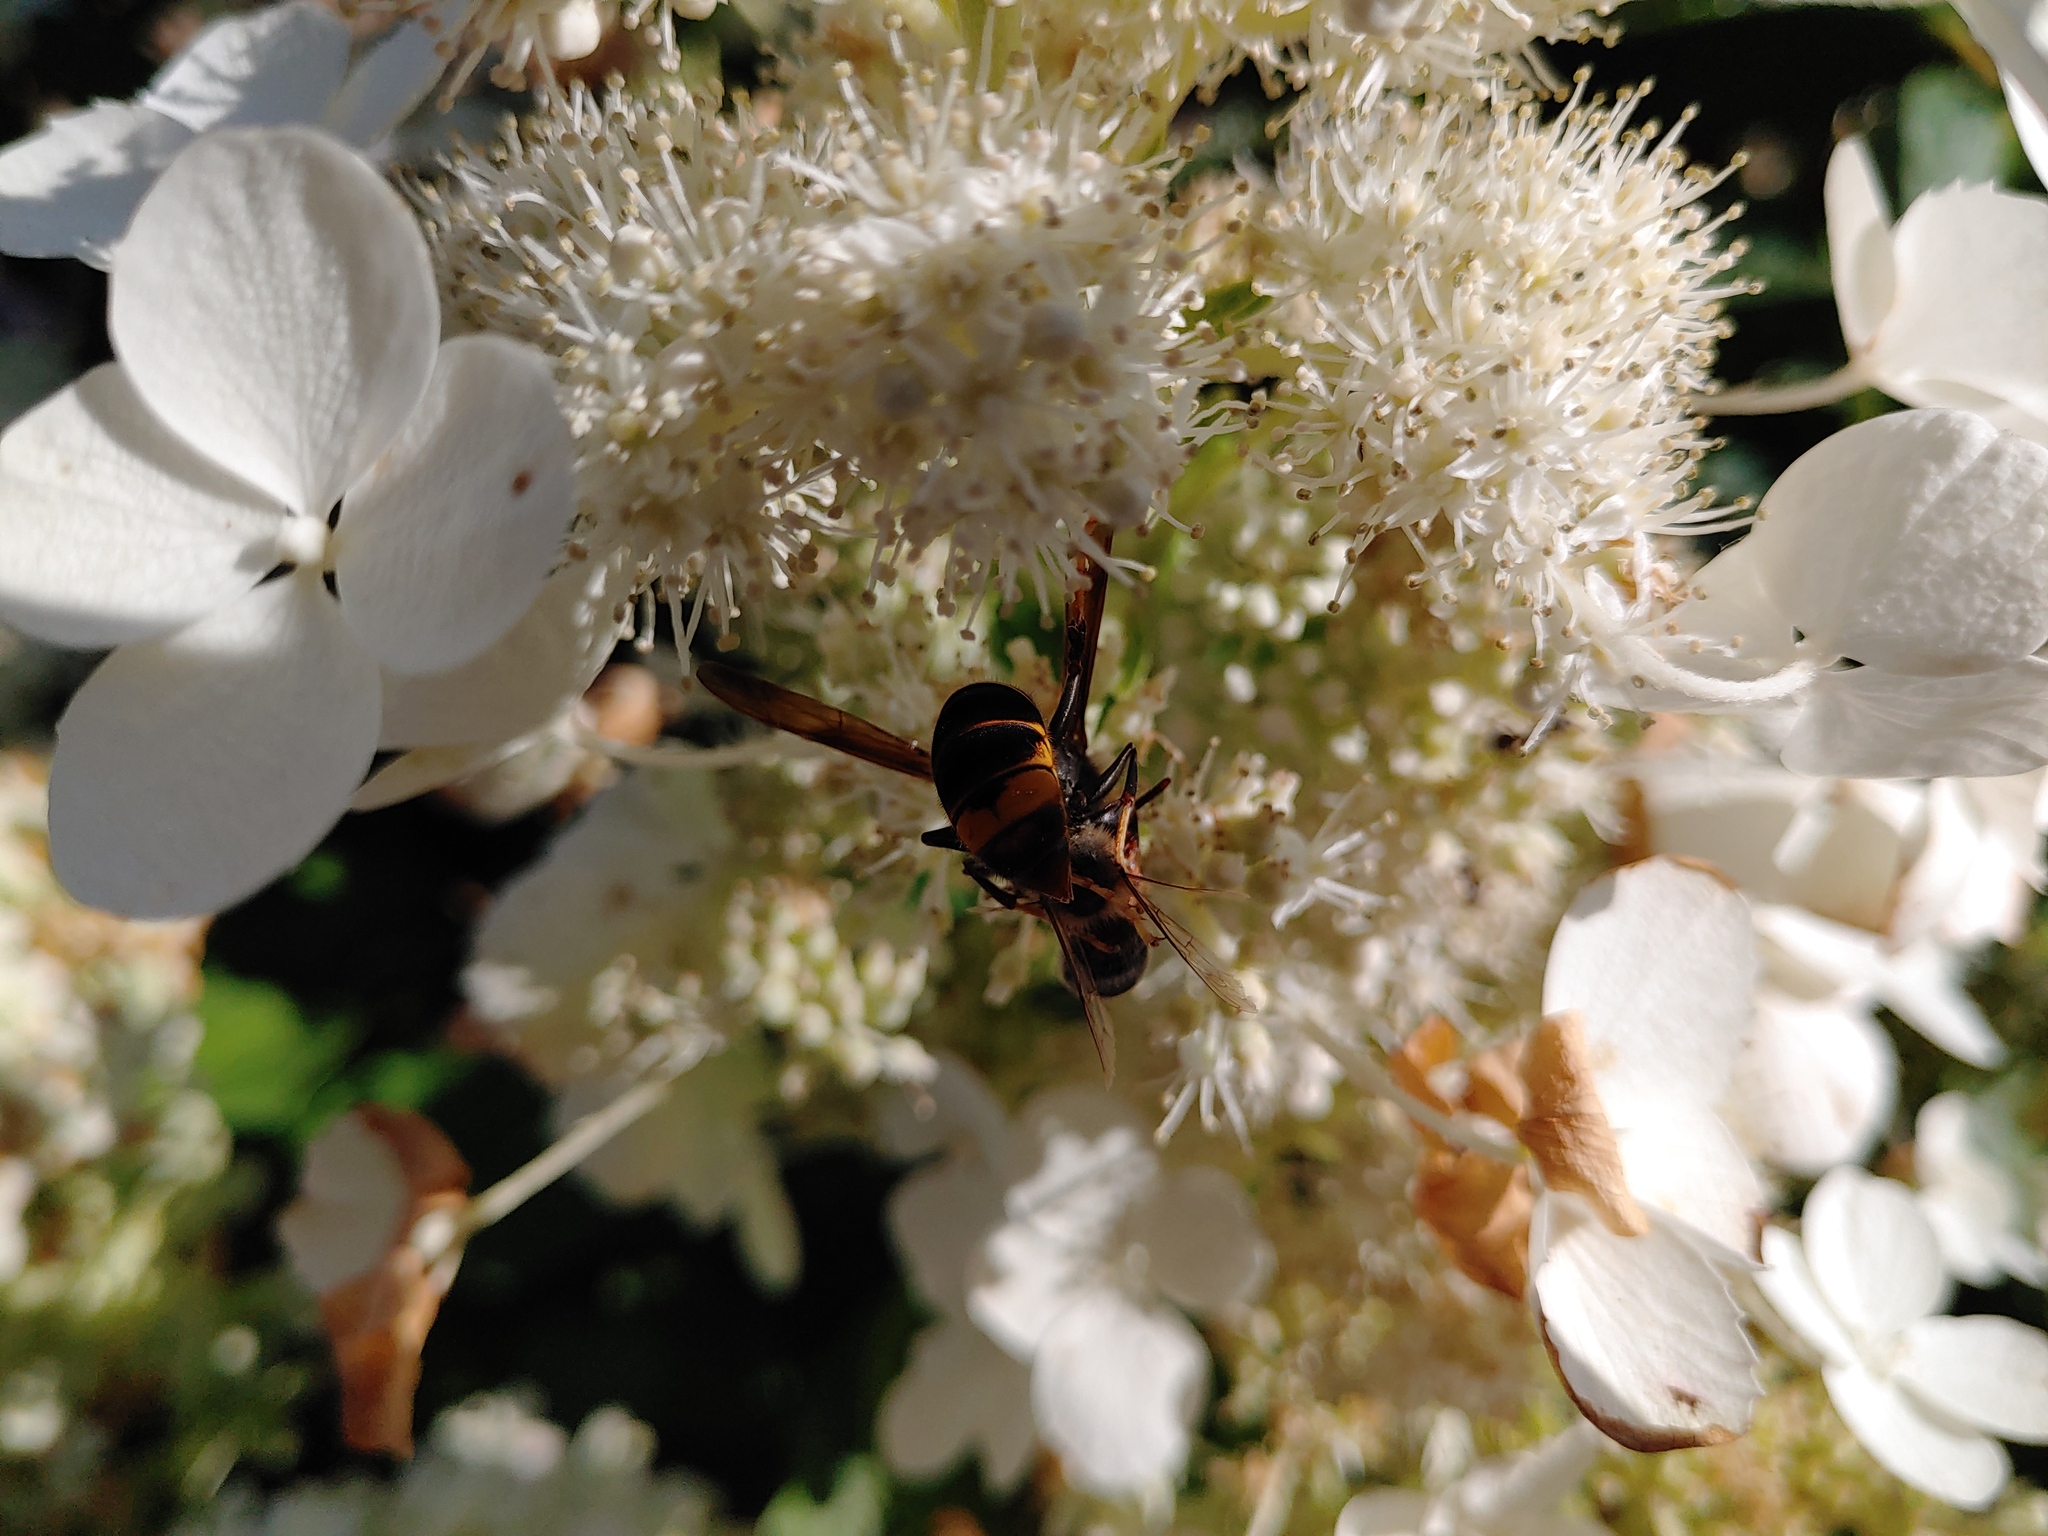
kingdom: Animalia
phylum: Arthropoda
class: Insecta
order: Hymenoptera
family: Vespidae
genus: Vespa
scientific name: Vespa velutina
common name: Asian hornet
